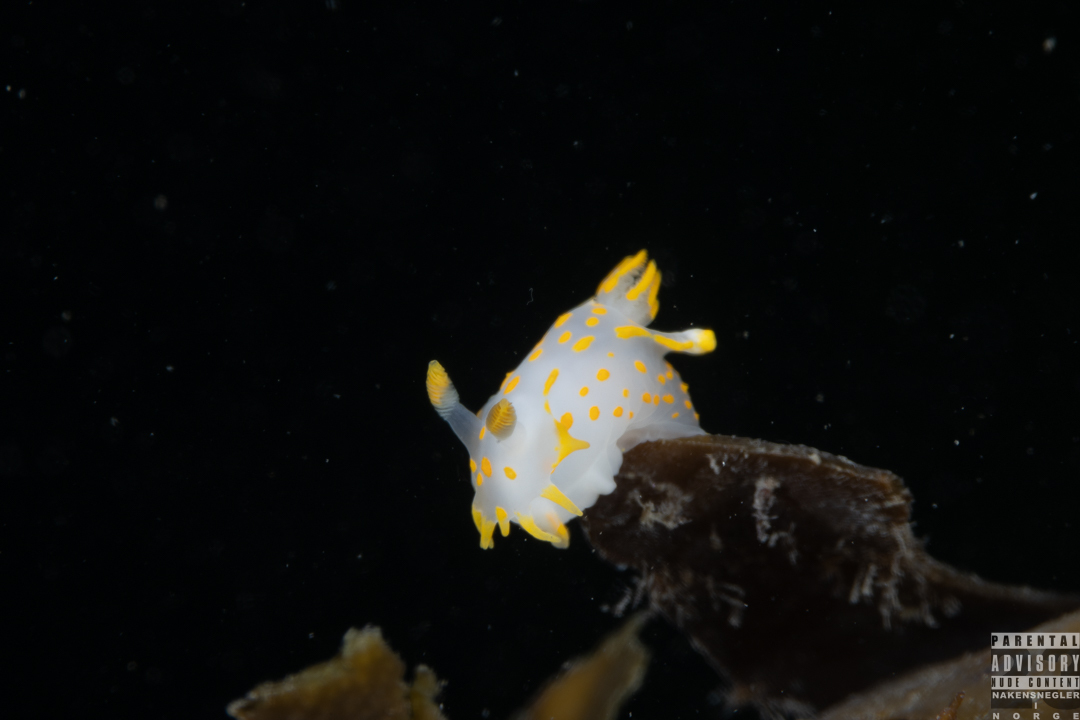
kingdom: Animalia
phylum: Mollusca
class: Gastropoda
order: Nudibranchia
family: Polyceridae
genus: Polycera
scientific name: Polycera quadrilineata
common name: Four-striped polycera
